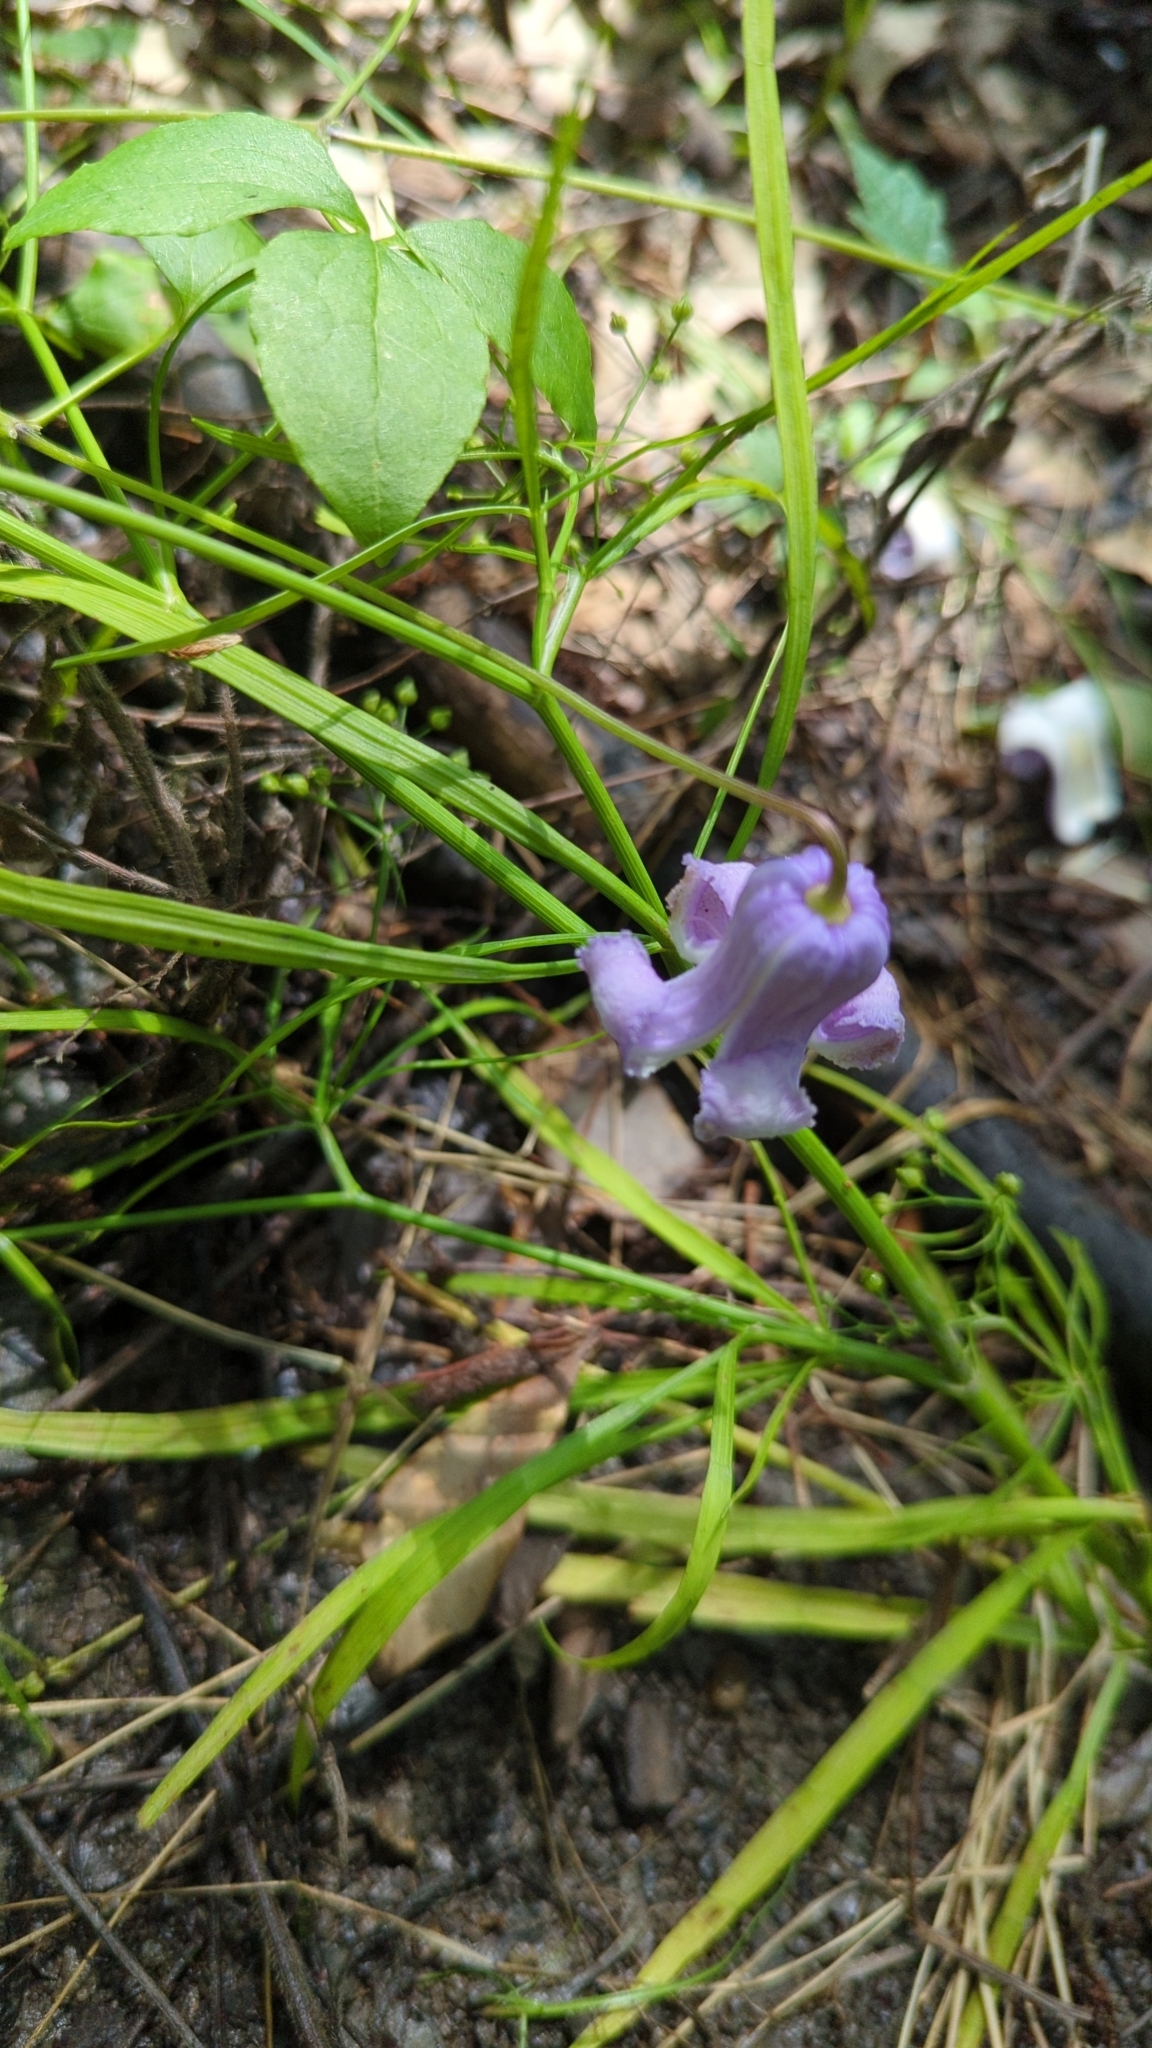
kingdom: Plantae
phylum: Tracheophyta
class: Magnoliopsida
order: Ranunculales
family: Ranunculaceae
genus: Clematis
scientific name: Clematis crispa
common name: Curly clematis
